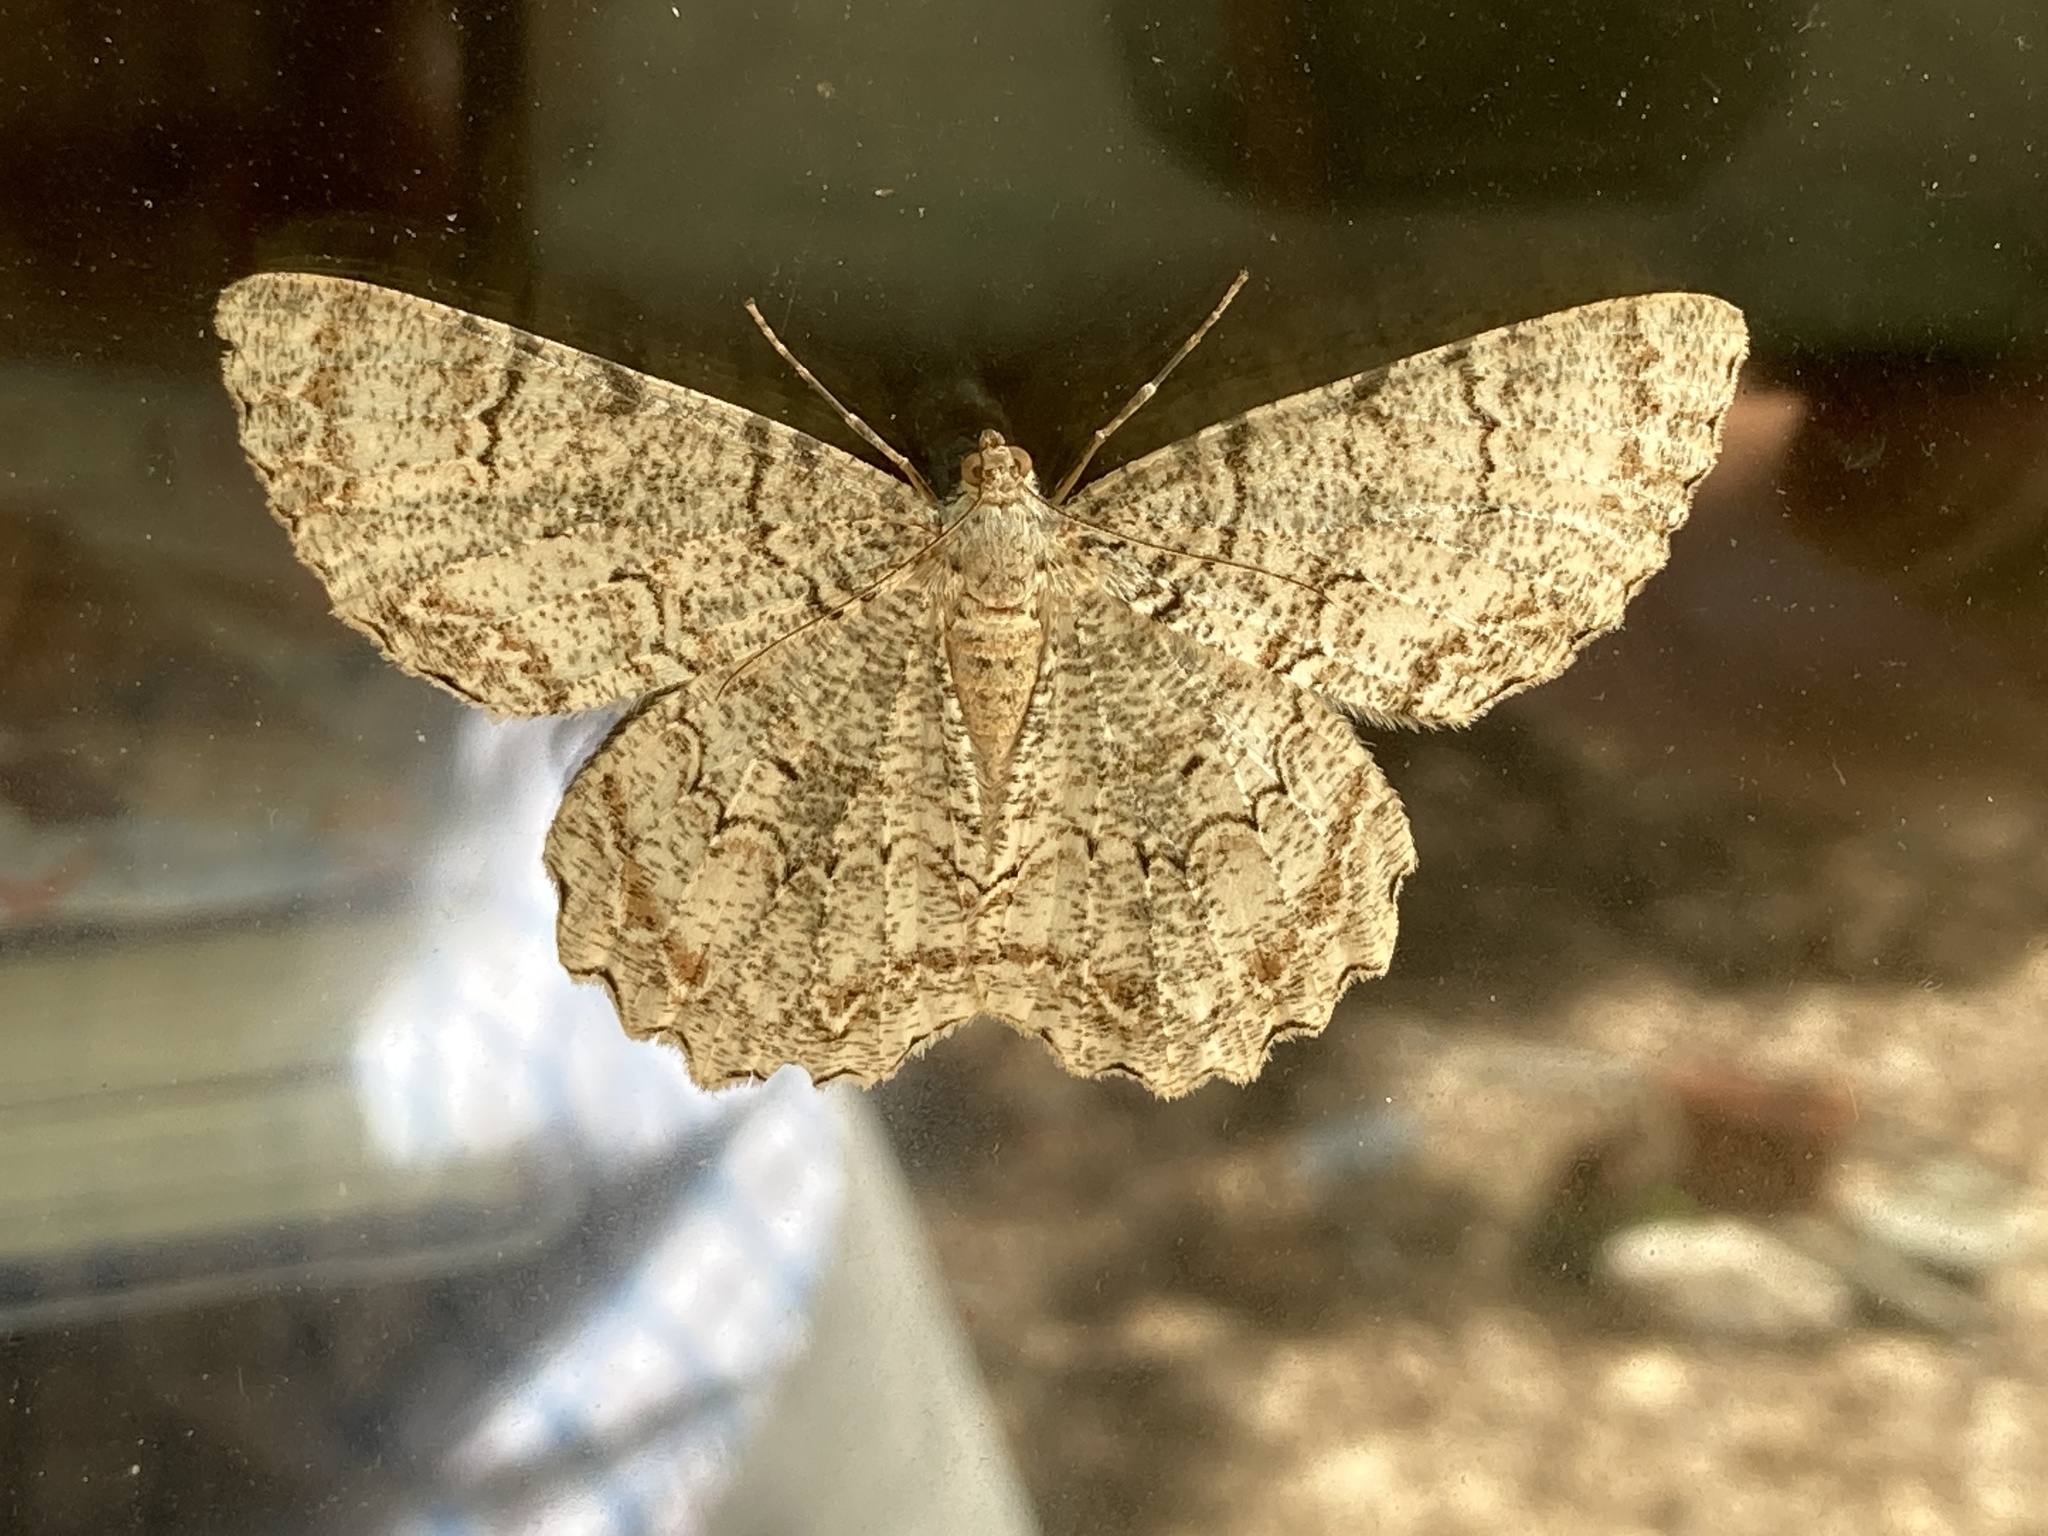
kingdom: Animalia
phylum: Arthropoda
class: Insecta
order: Lepidoptera
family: Geometridae
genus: Epimecis
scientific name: Epimecis hortaria
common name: Tulip-tree beauty
